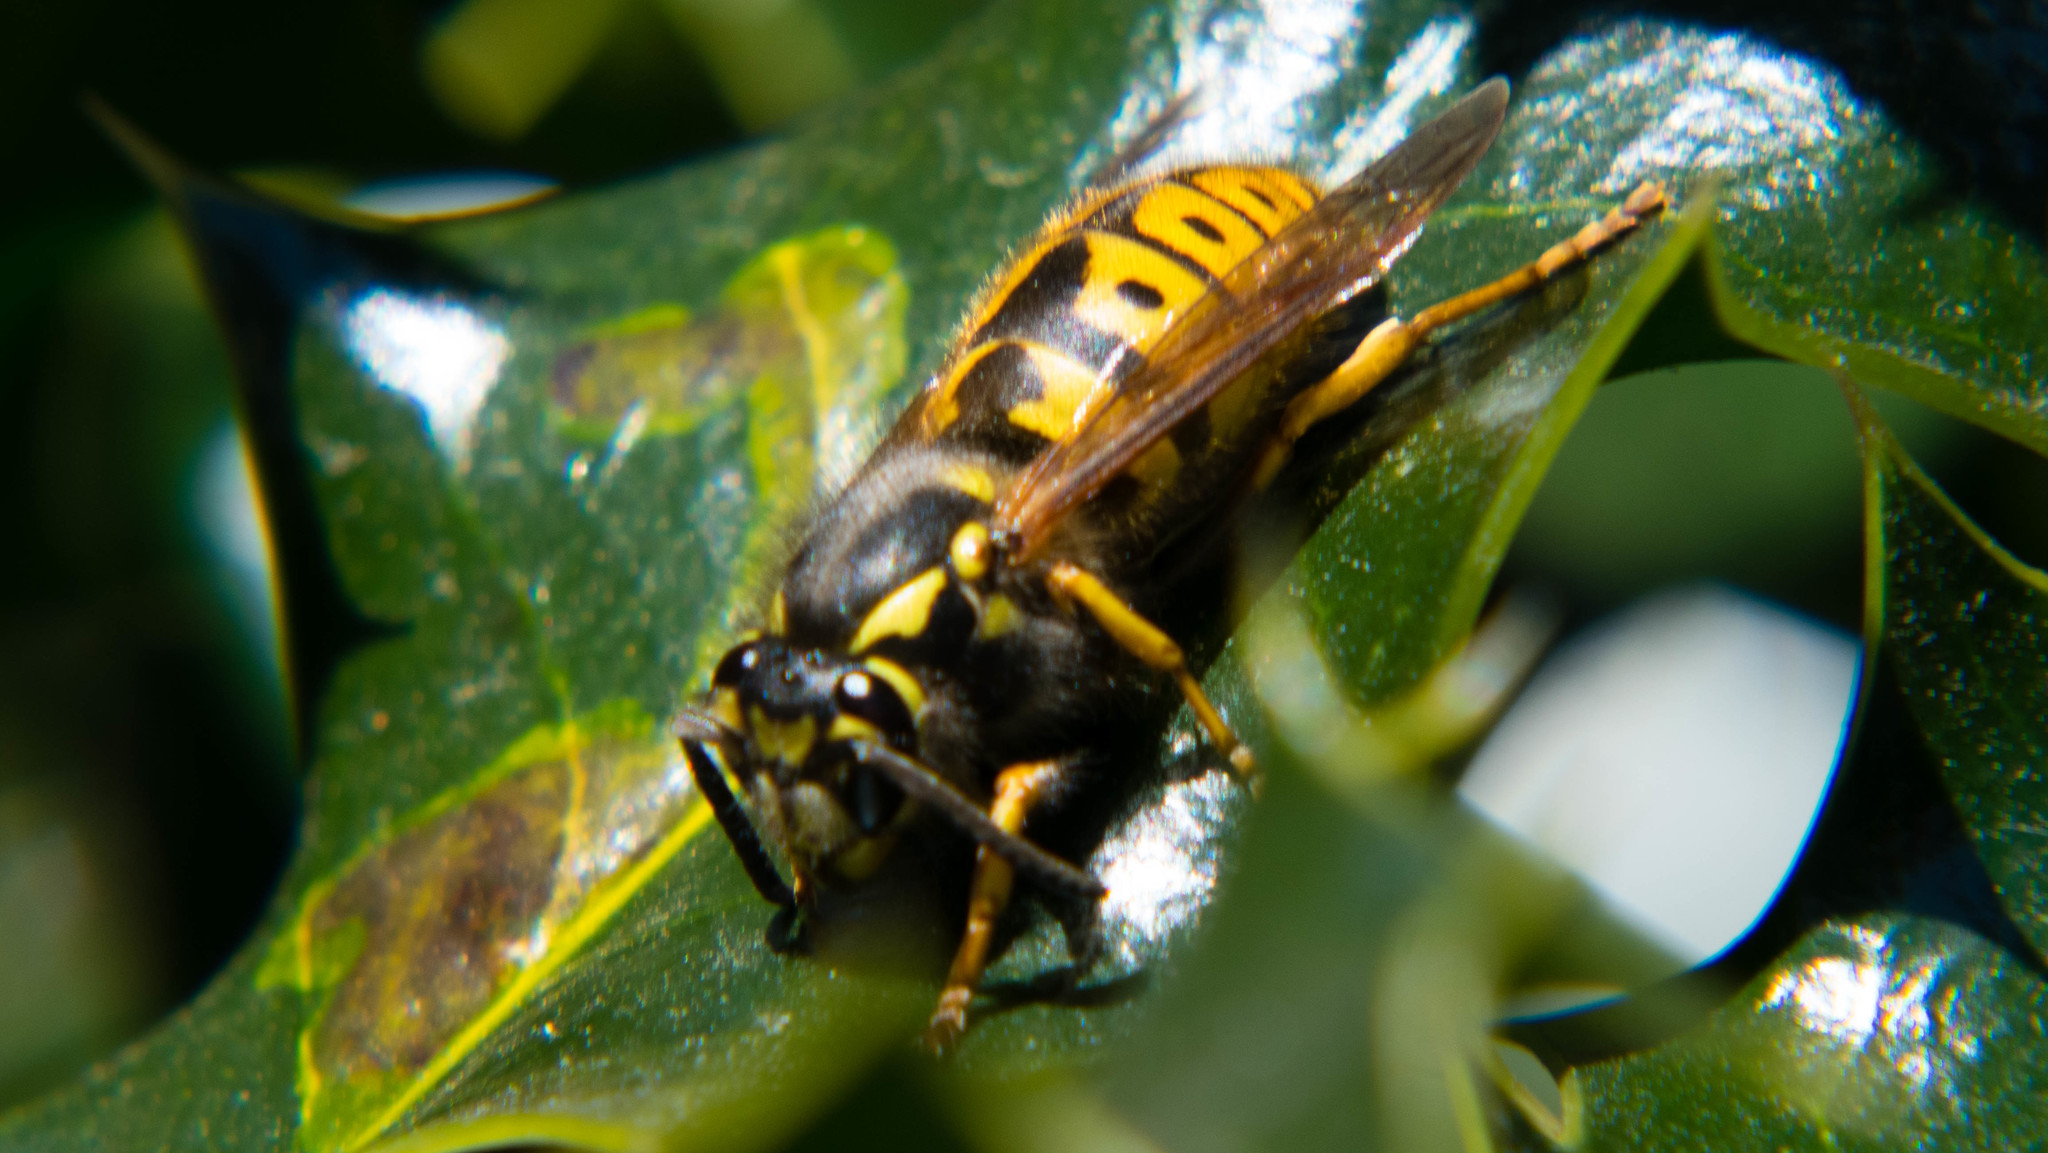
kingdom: Animalia
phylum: Arthropoda
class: Insecta
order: Hymenoptera
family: Vespidae
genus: Vespula
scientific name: Vespula germanica
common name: German wasp
